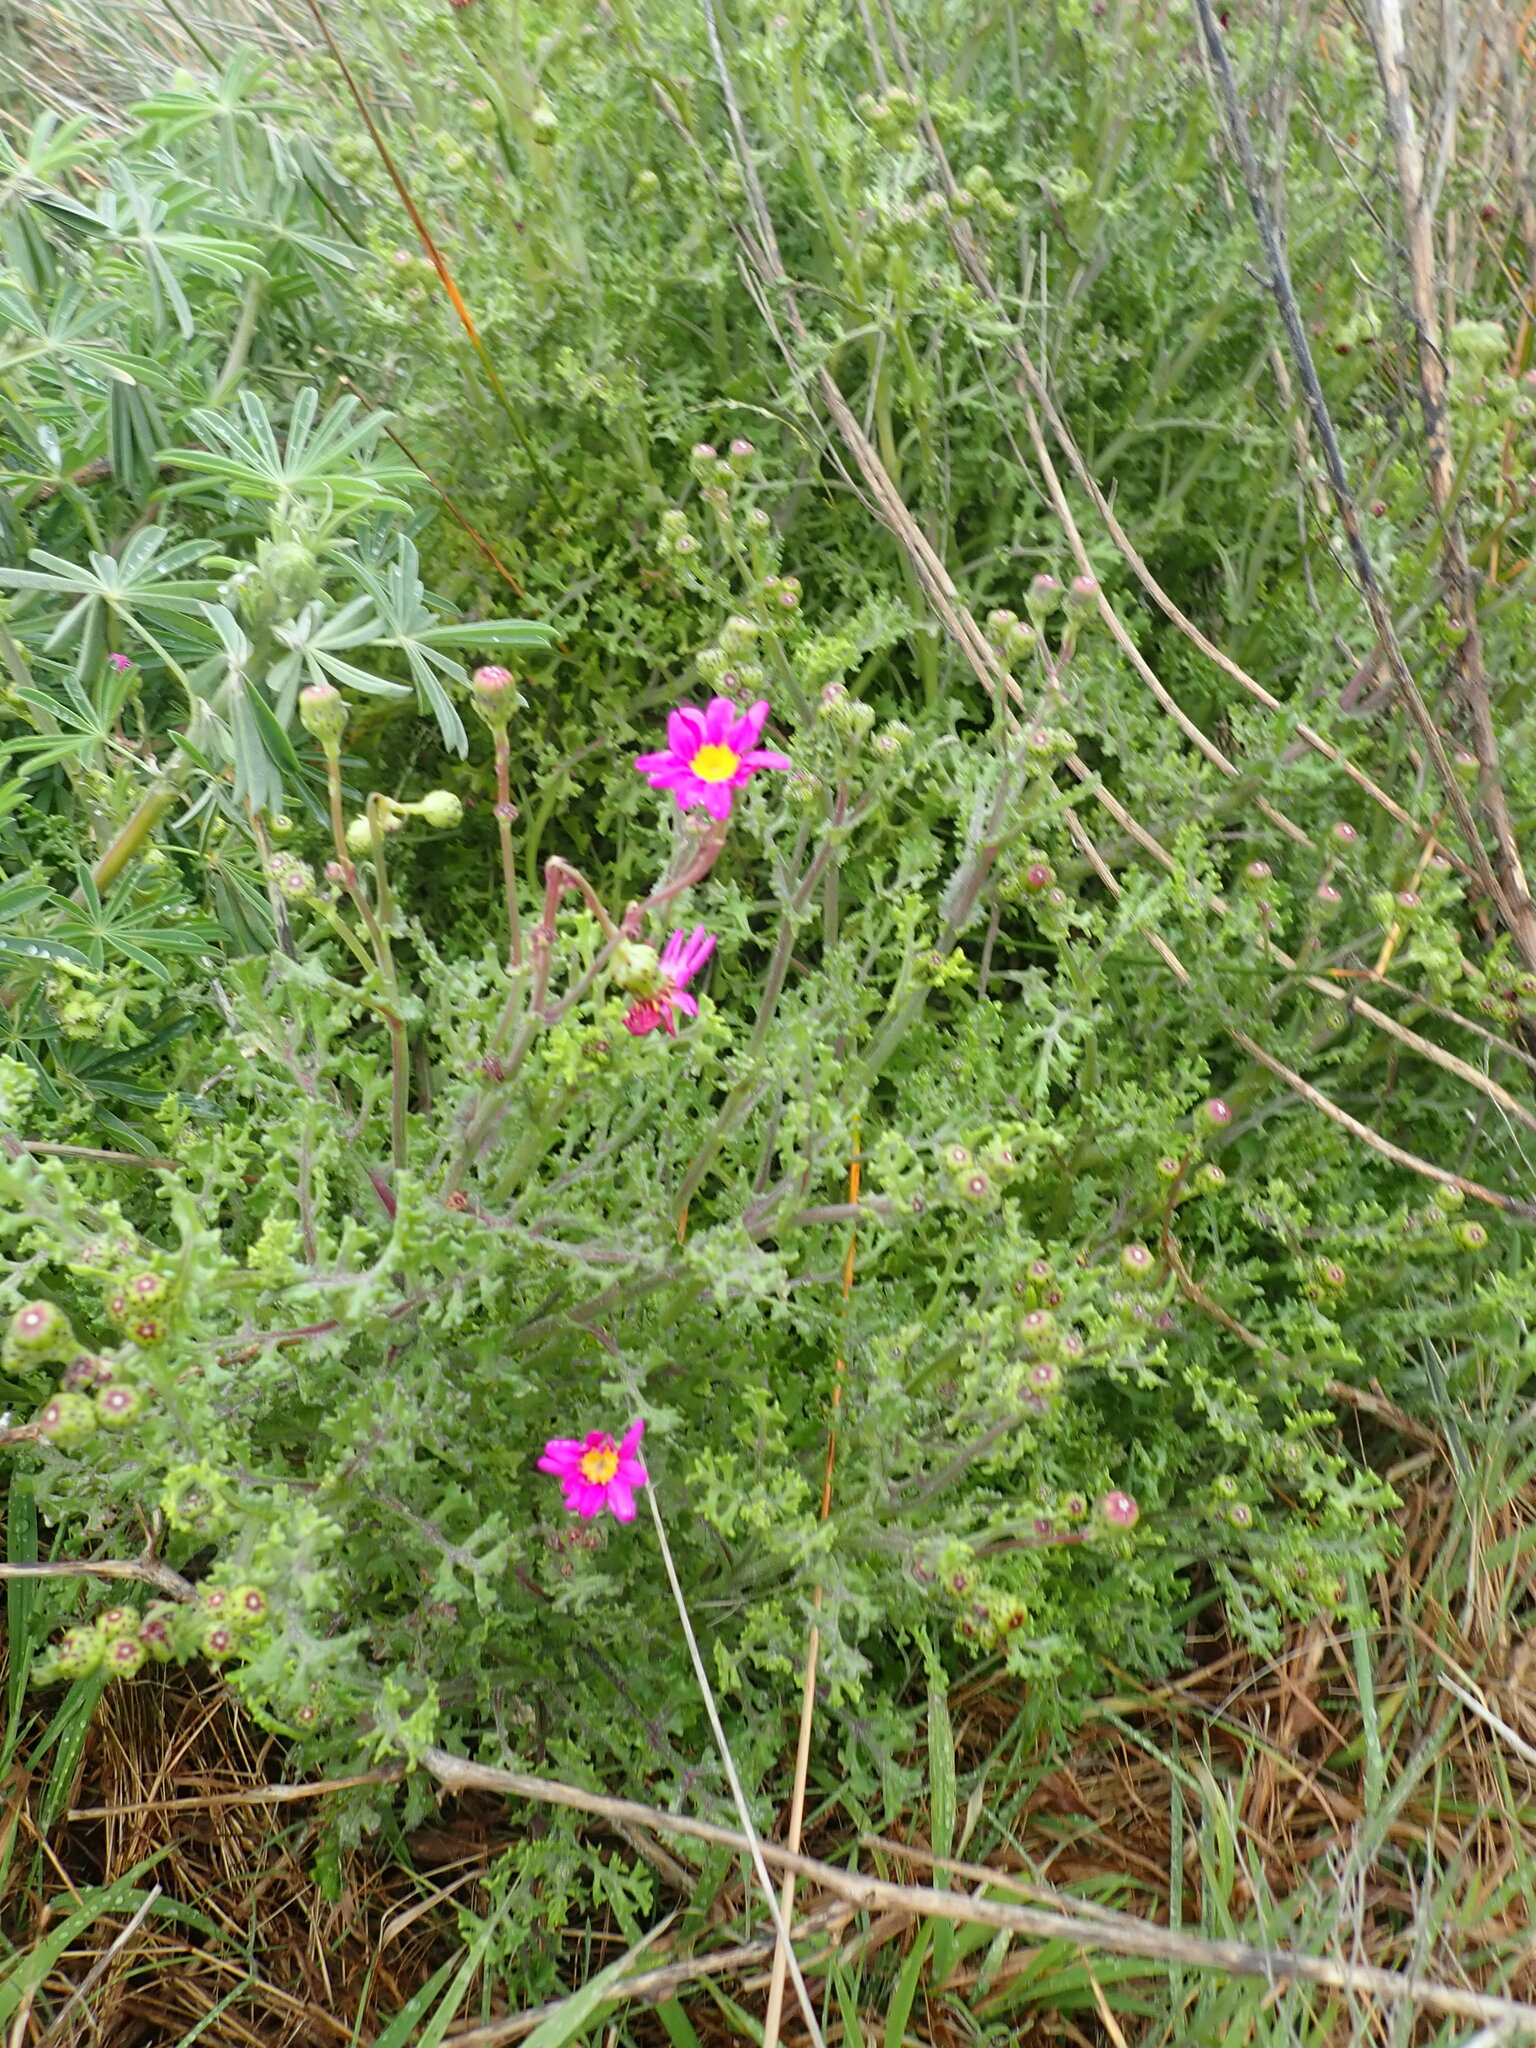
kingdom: Plantae
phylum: Tracheophyta
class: Magnoliopsida
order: Asterales
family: Asteraceae
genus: Senecio
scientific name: Senecio elegans
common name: Purple groundsel
